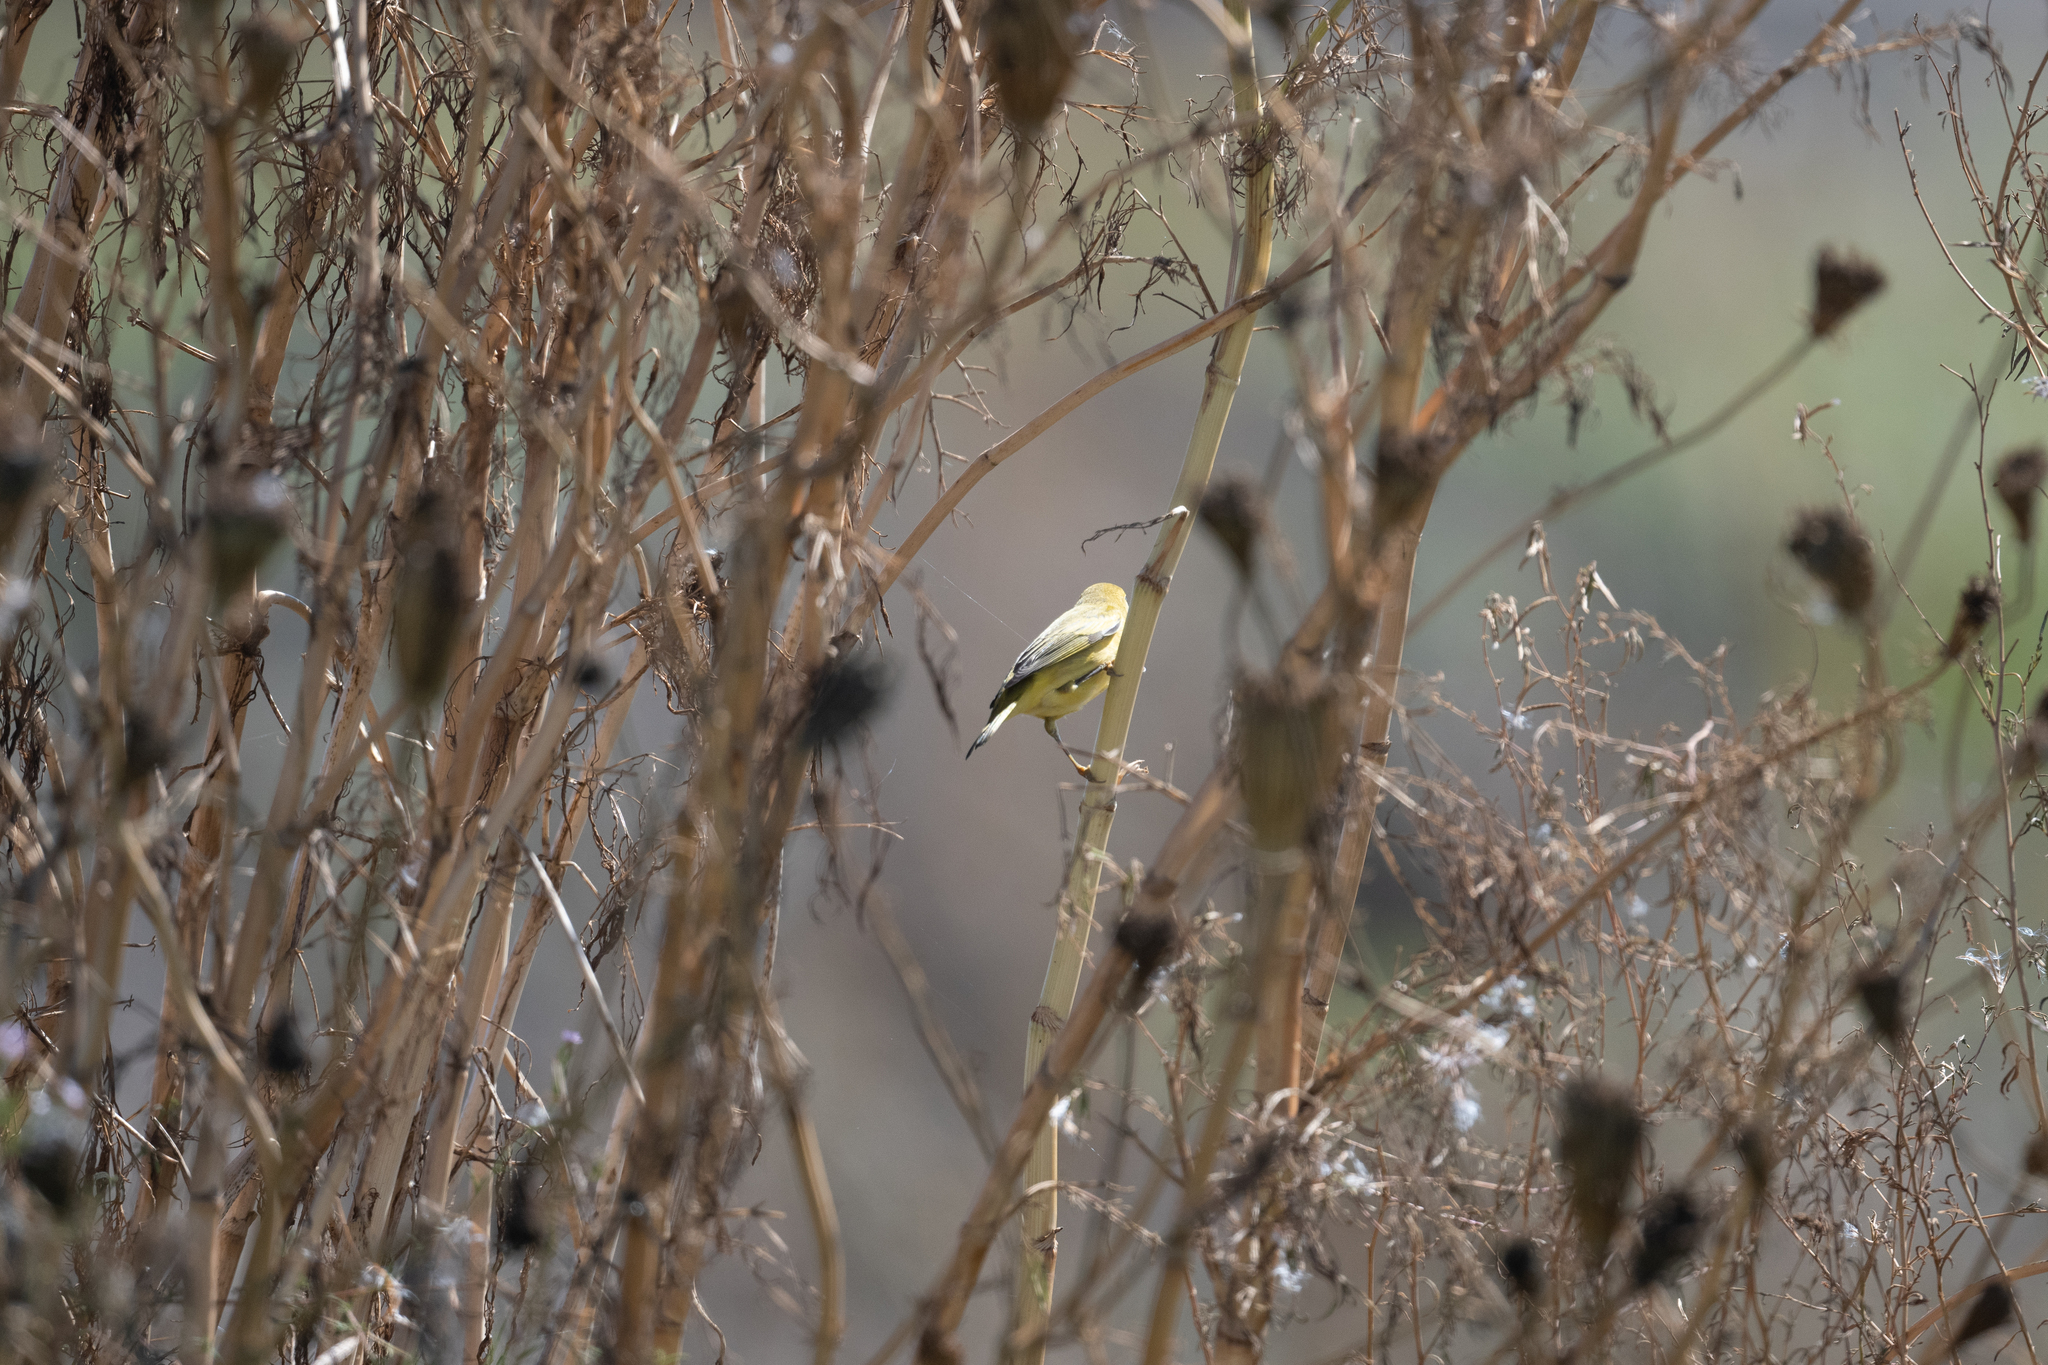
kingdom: Animalia
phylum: Chordata
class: Aves
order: Passeriformes
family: Parulidae
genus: Setophaga
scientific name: Setophaga petechia
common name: Yellow warbler
